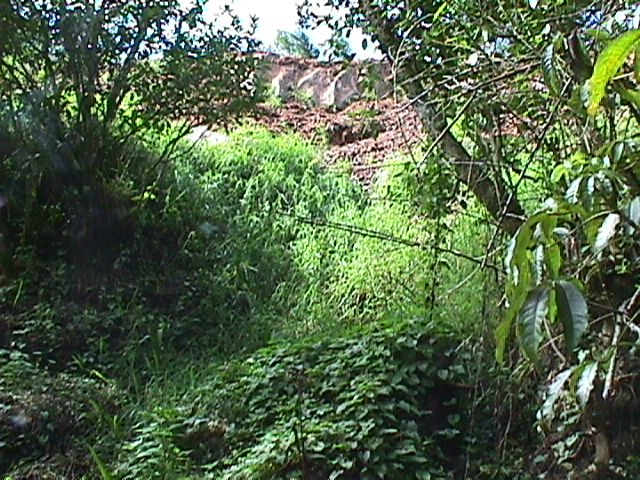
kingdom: Plantae
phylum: Tracheophyta
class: Liliopsida
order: Poales
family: Poaceae
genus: Cenchrus
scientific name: Cenchrus clandestinus
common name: Kikuyugrass
